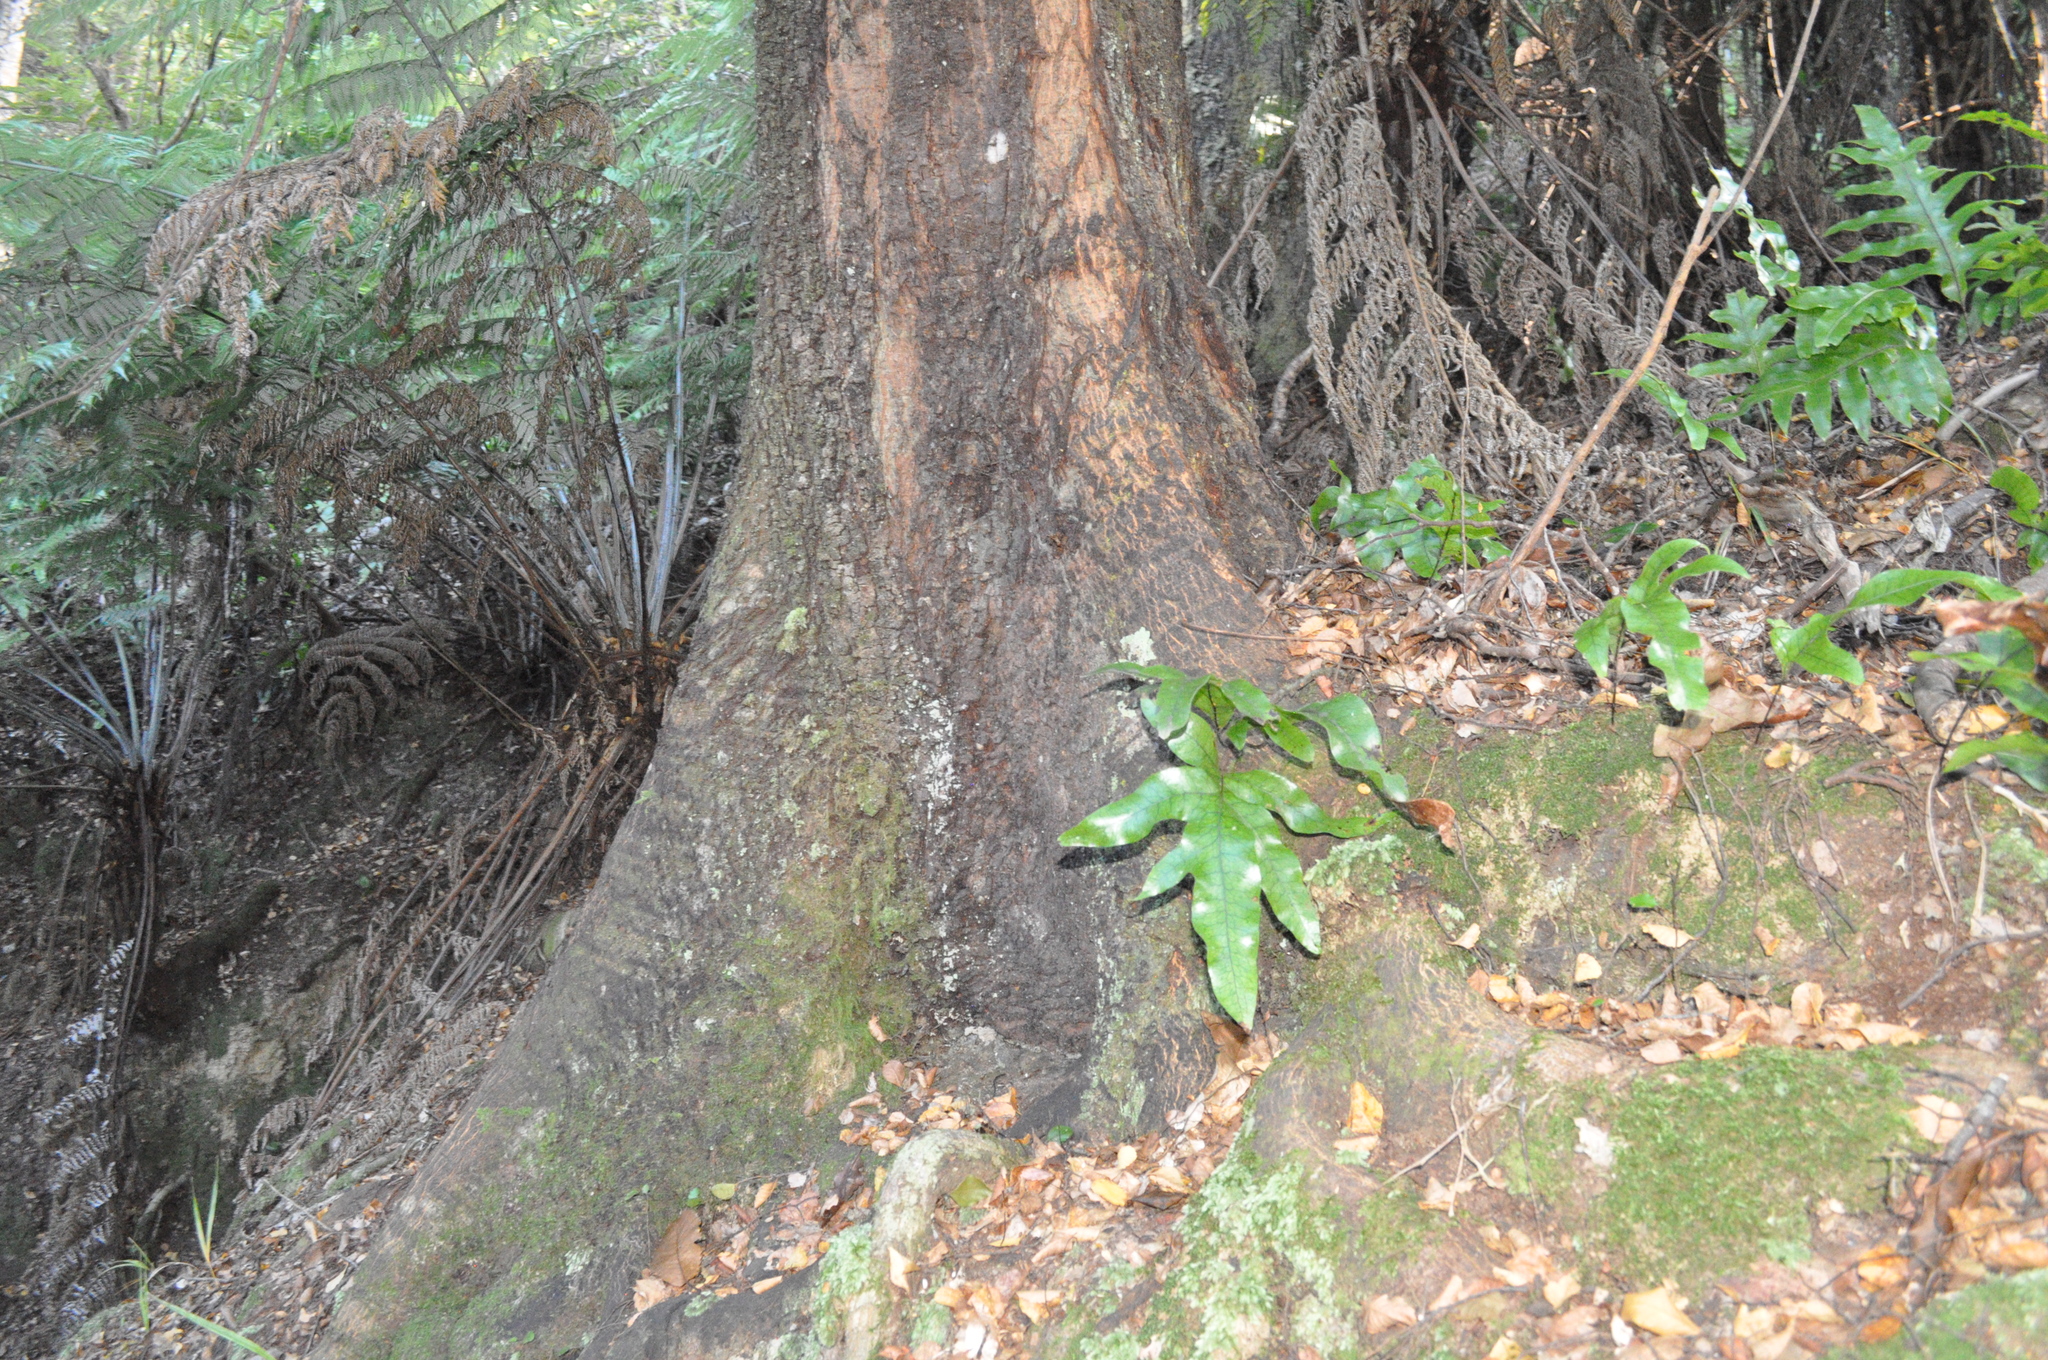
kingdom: Plantae
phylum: Tracheophyta
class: Polypodiopsida
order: Polypodiales
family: Polypodiaceae
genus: Lecanopteris
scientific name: Lecanopteris pustulata
